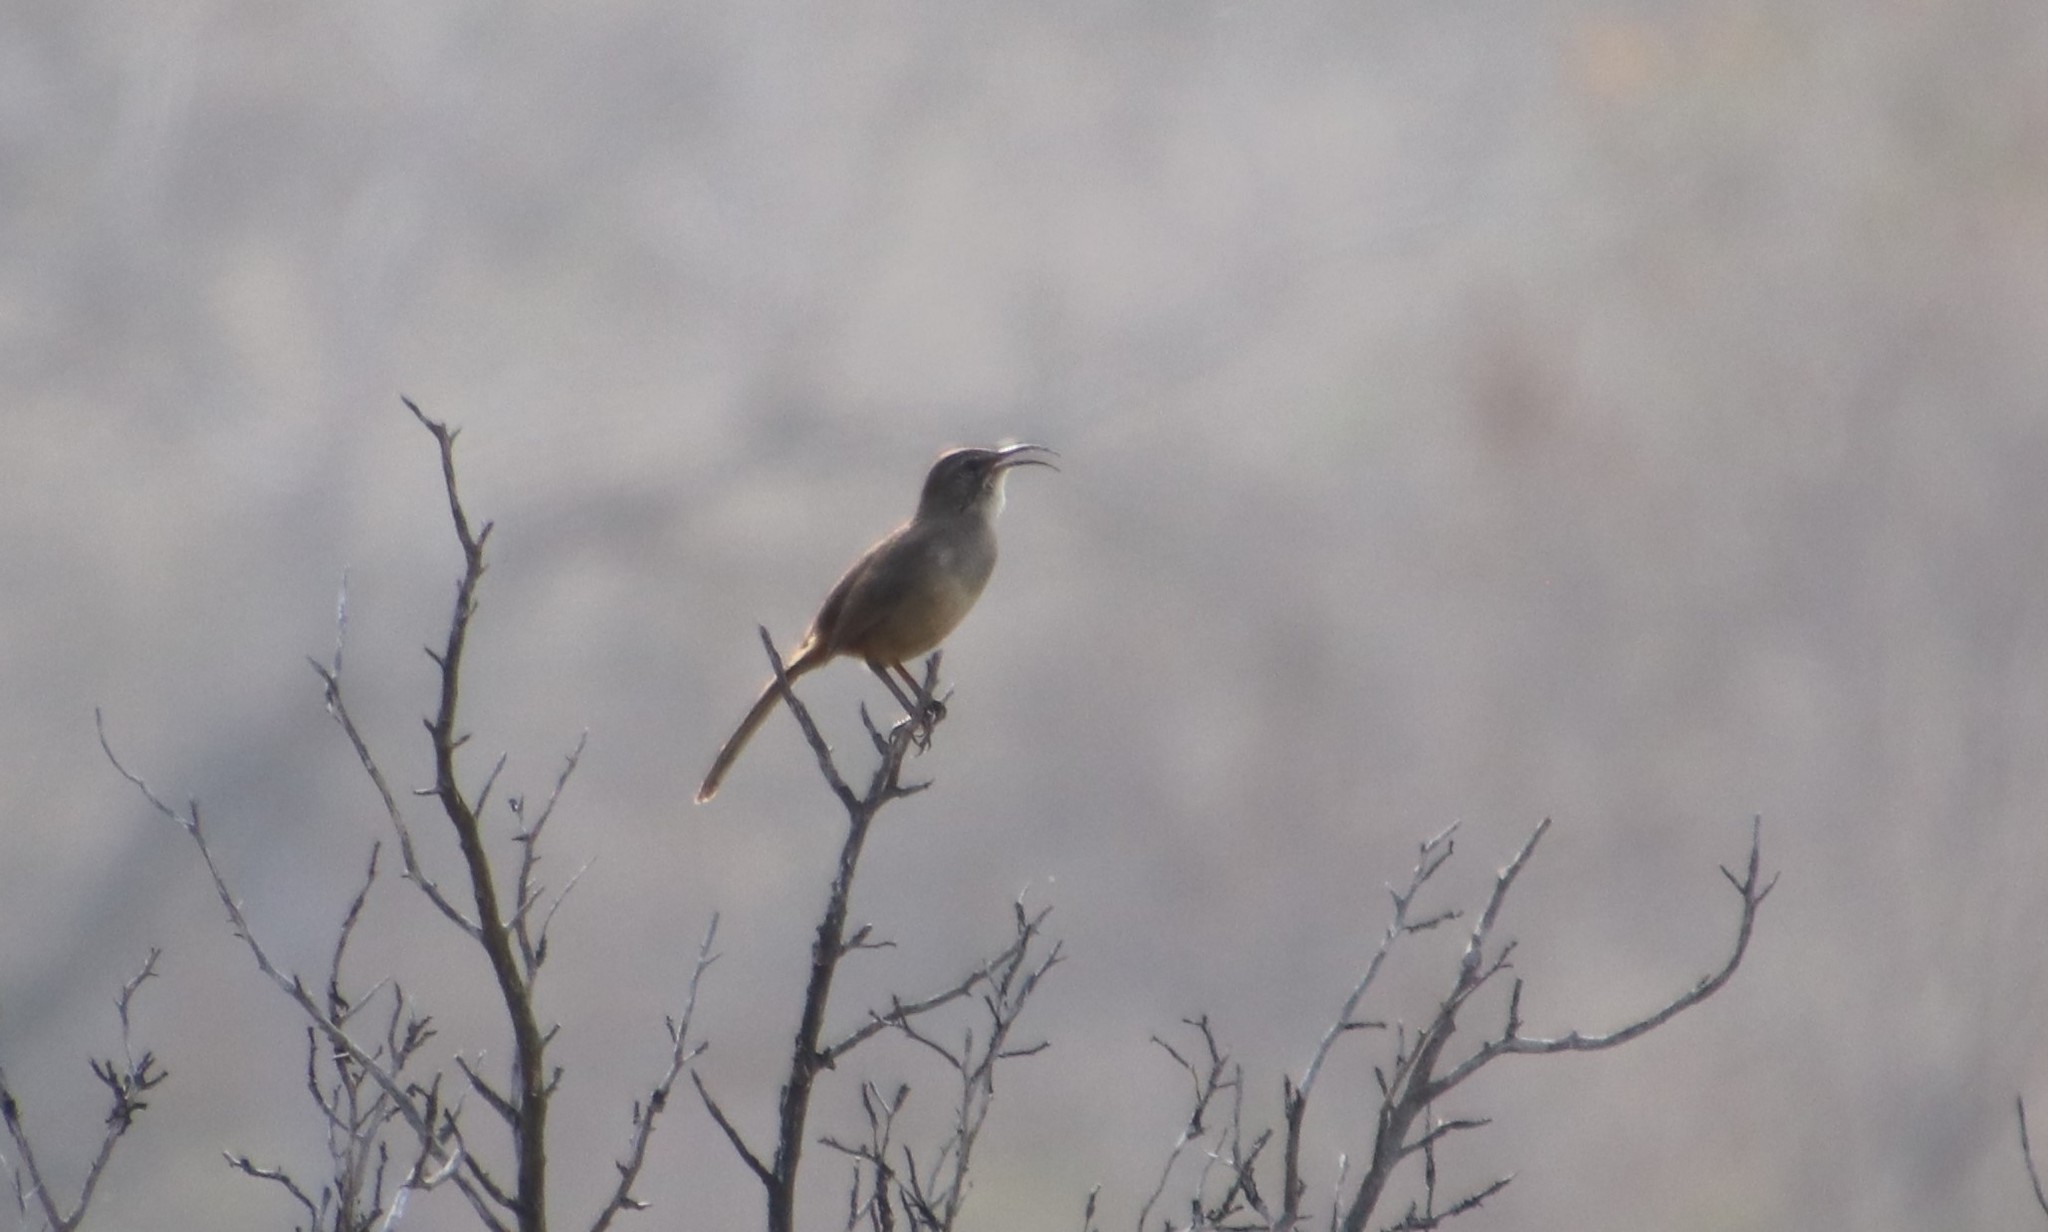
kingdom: Animalia
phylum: Chordata
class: Aves
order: Passeriformes
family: Mimidae
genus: Toxostoma
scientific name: Toxostoma redivivum
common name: California thrasher
